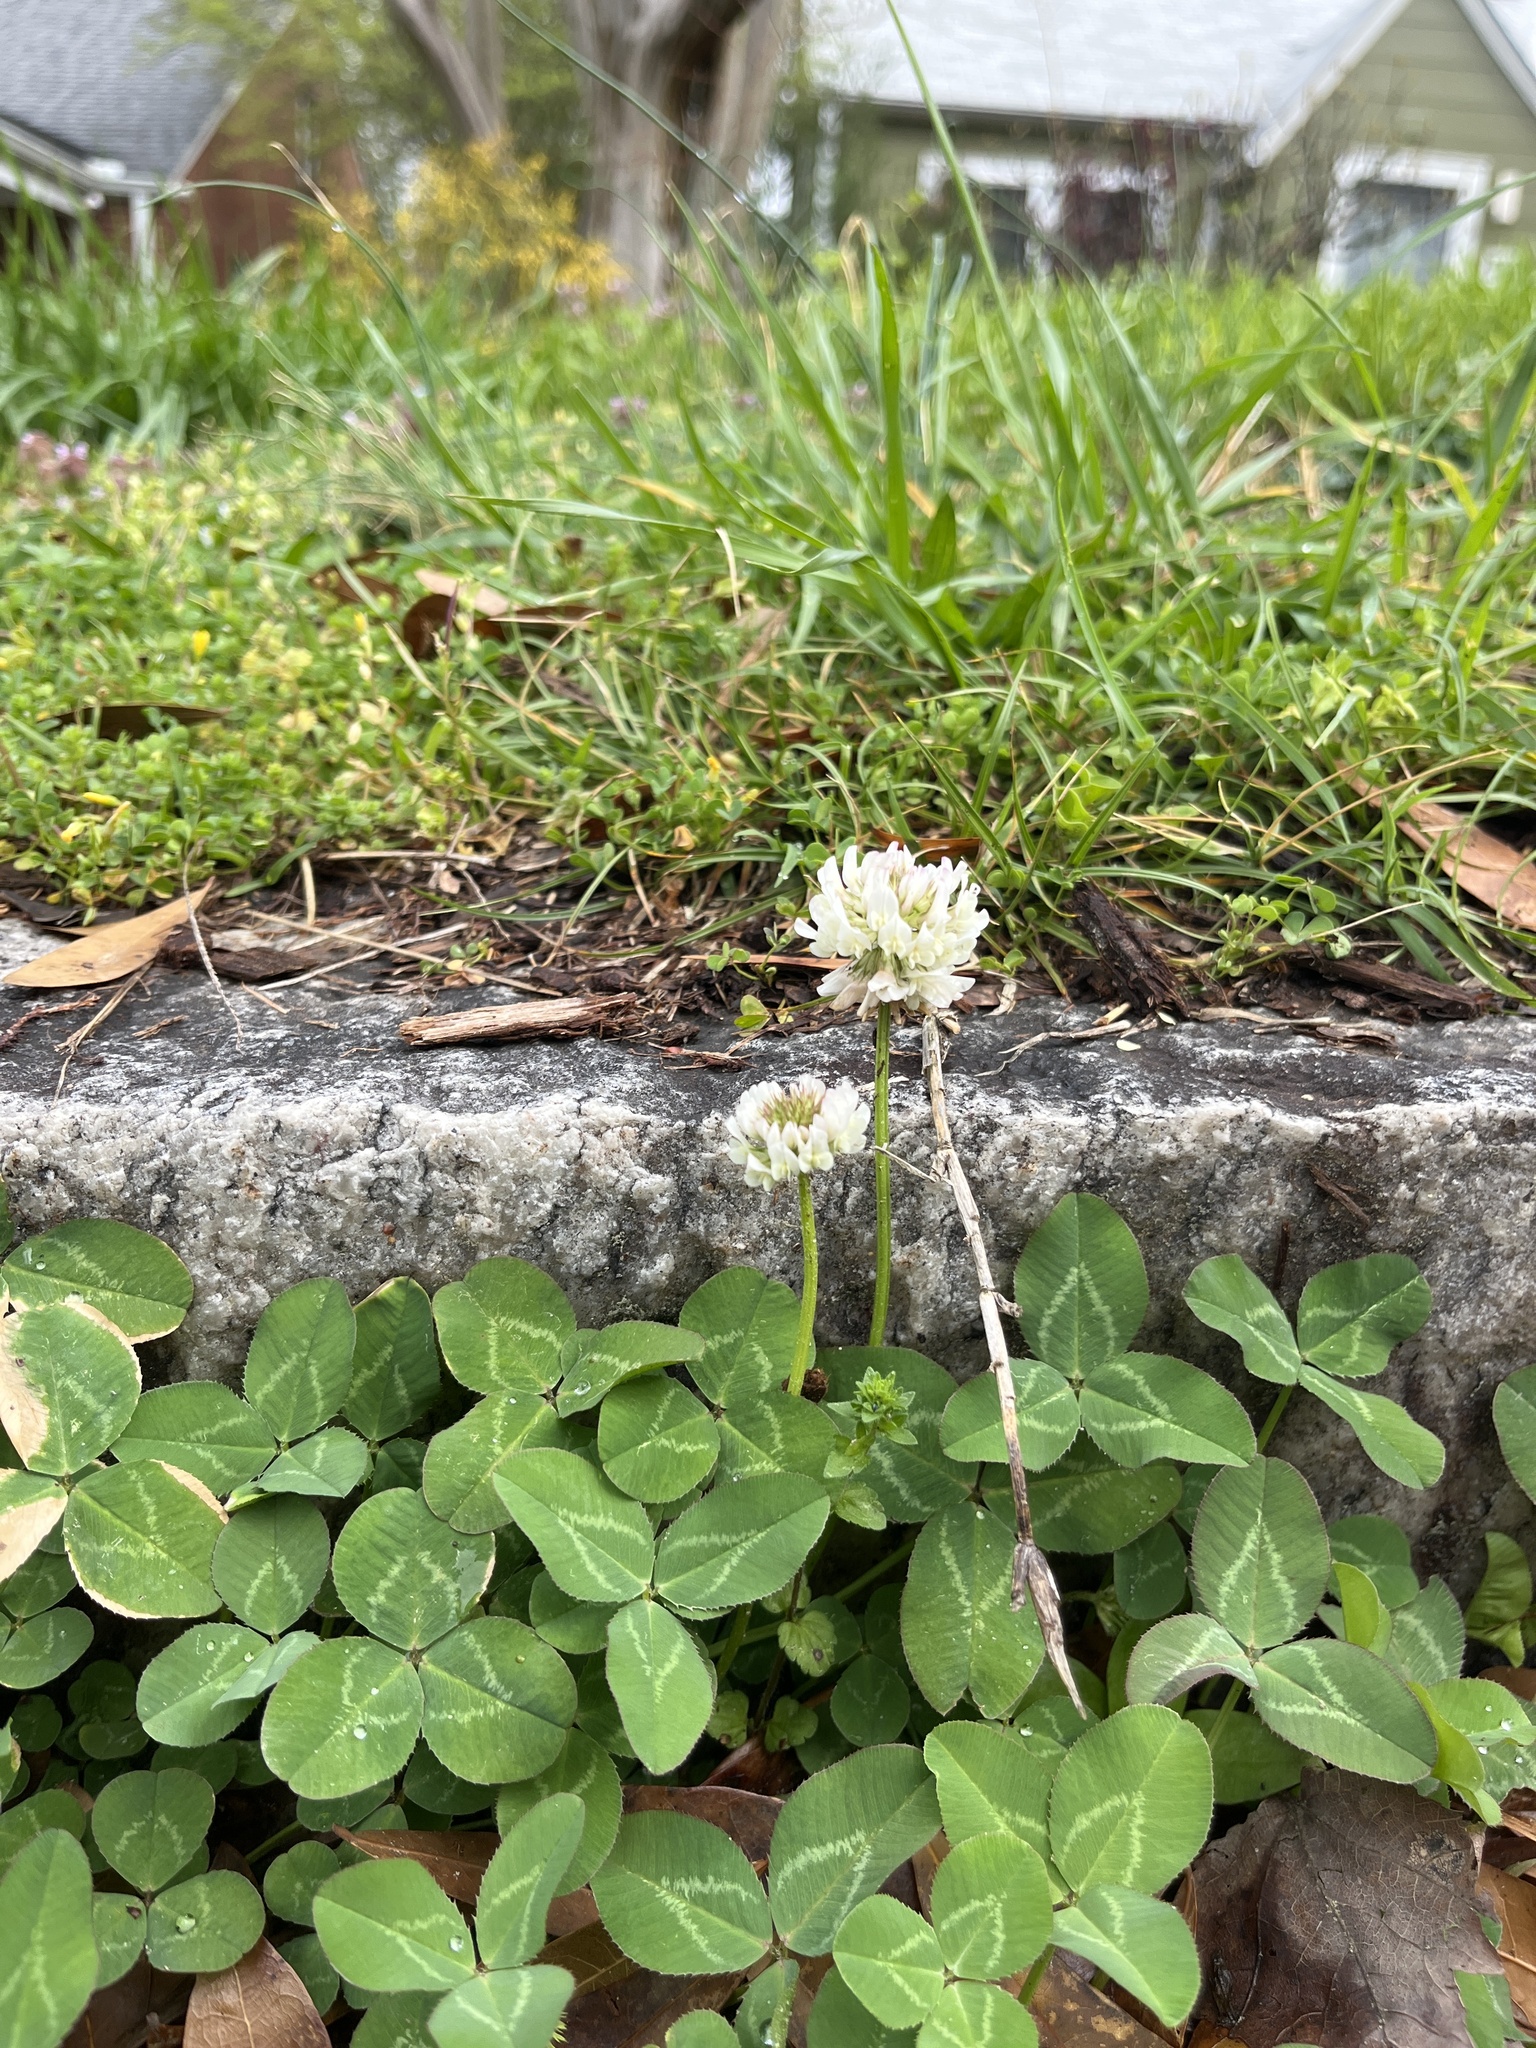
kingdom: Plantae
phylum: Tracheophyta
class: Magnoliopsida
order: Fabales
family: Fabaceae
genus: Trifolium
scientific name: Trifolium repens
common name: White clover
